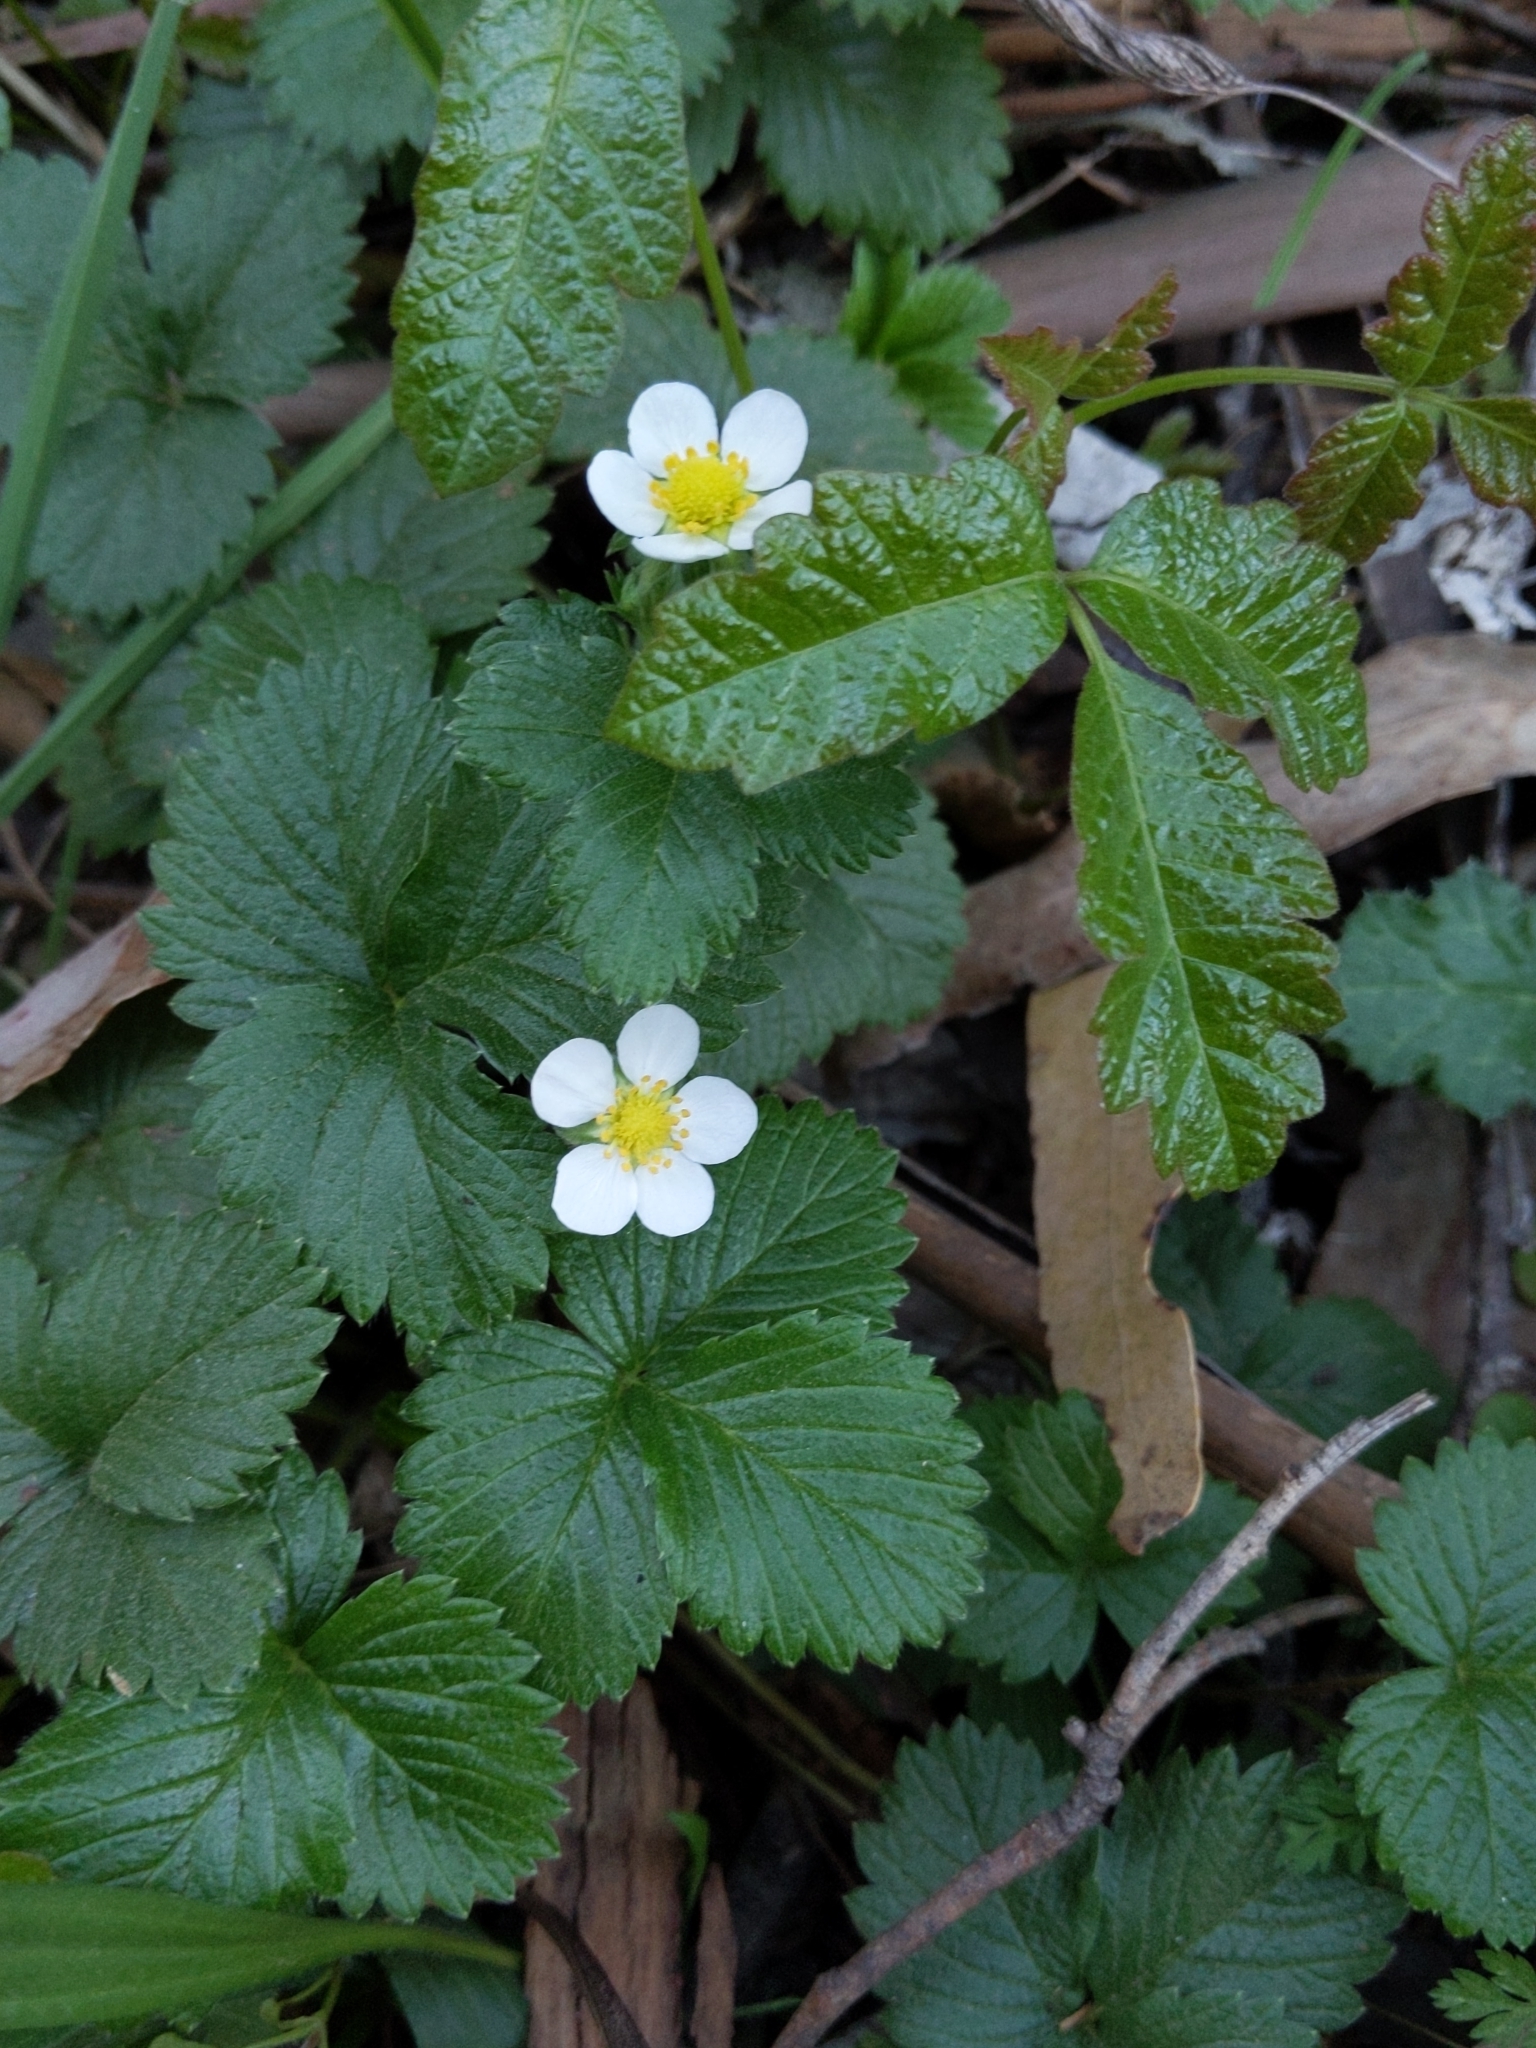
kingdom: Plantae
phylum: Tracheophyta
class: Magnoliopsida
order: Rosales
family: Rosaceae
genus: Fragaria
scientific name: Fragaria vesca
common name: Wild strawberry
